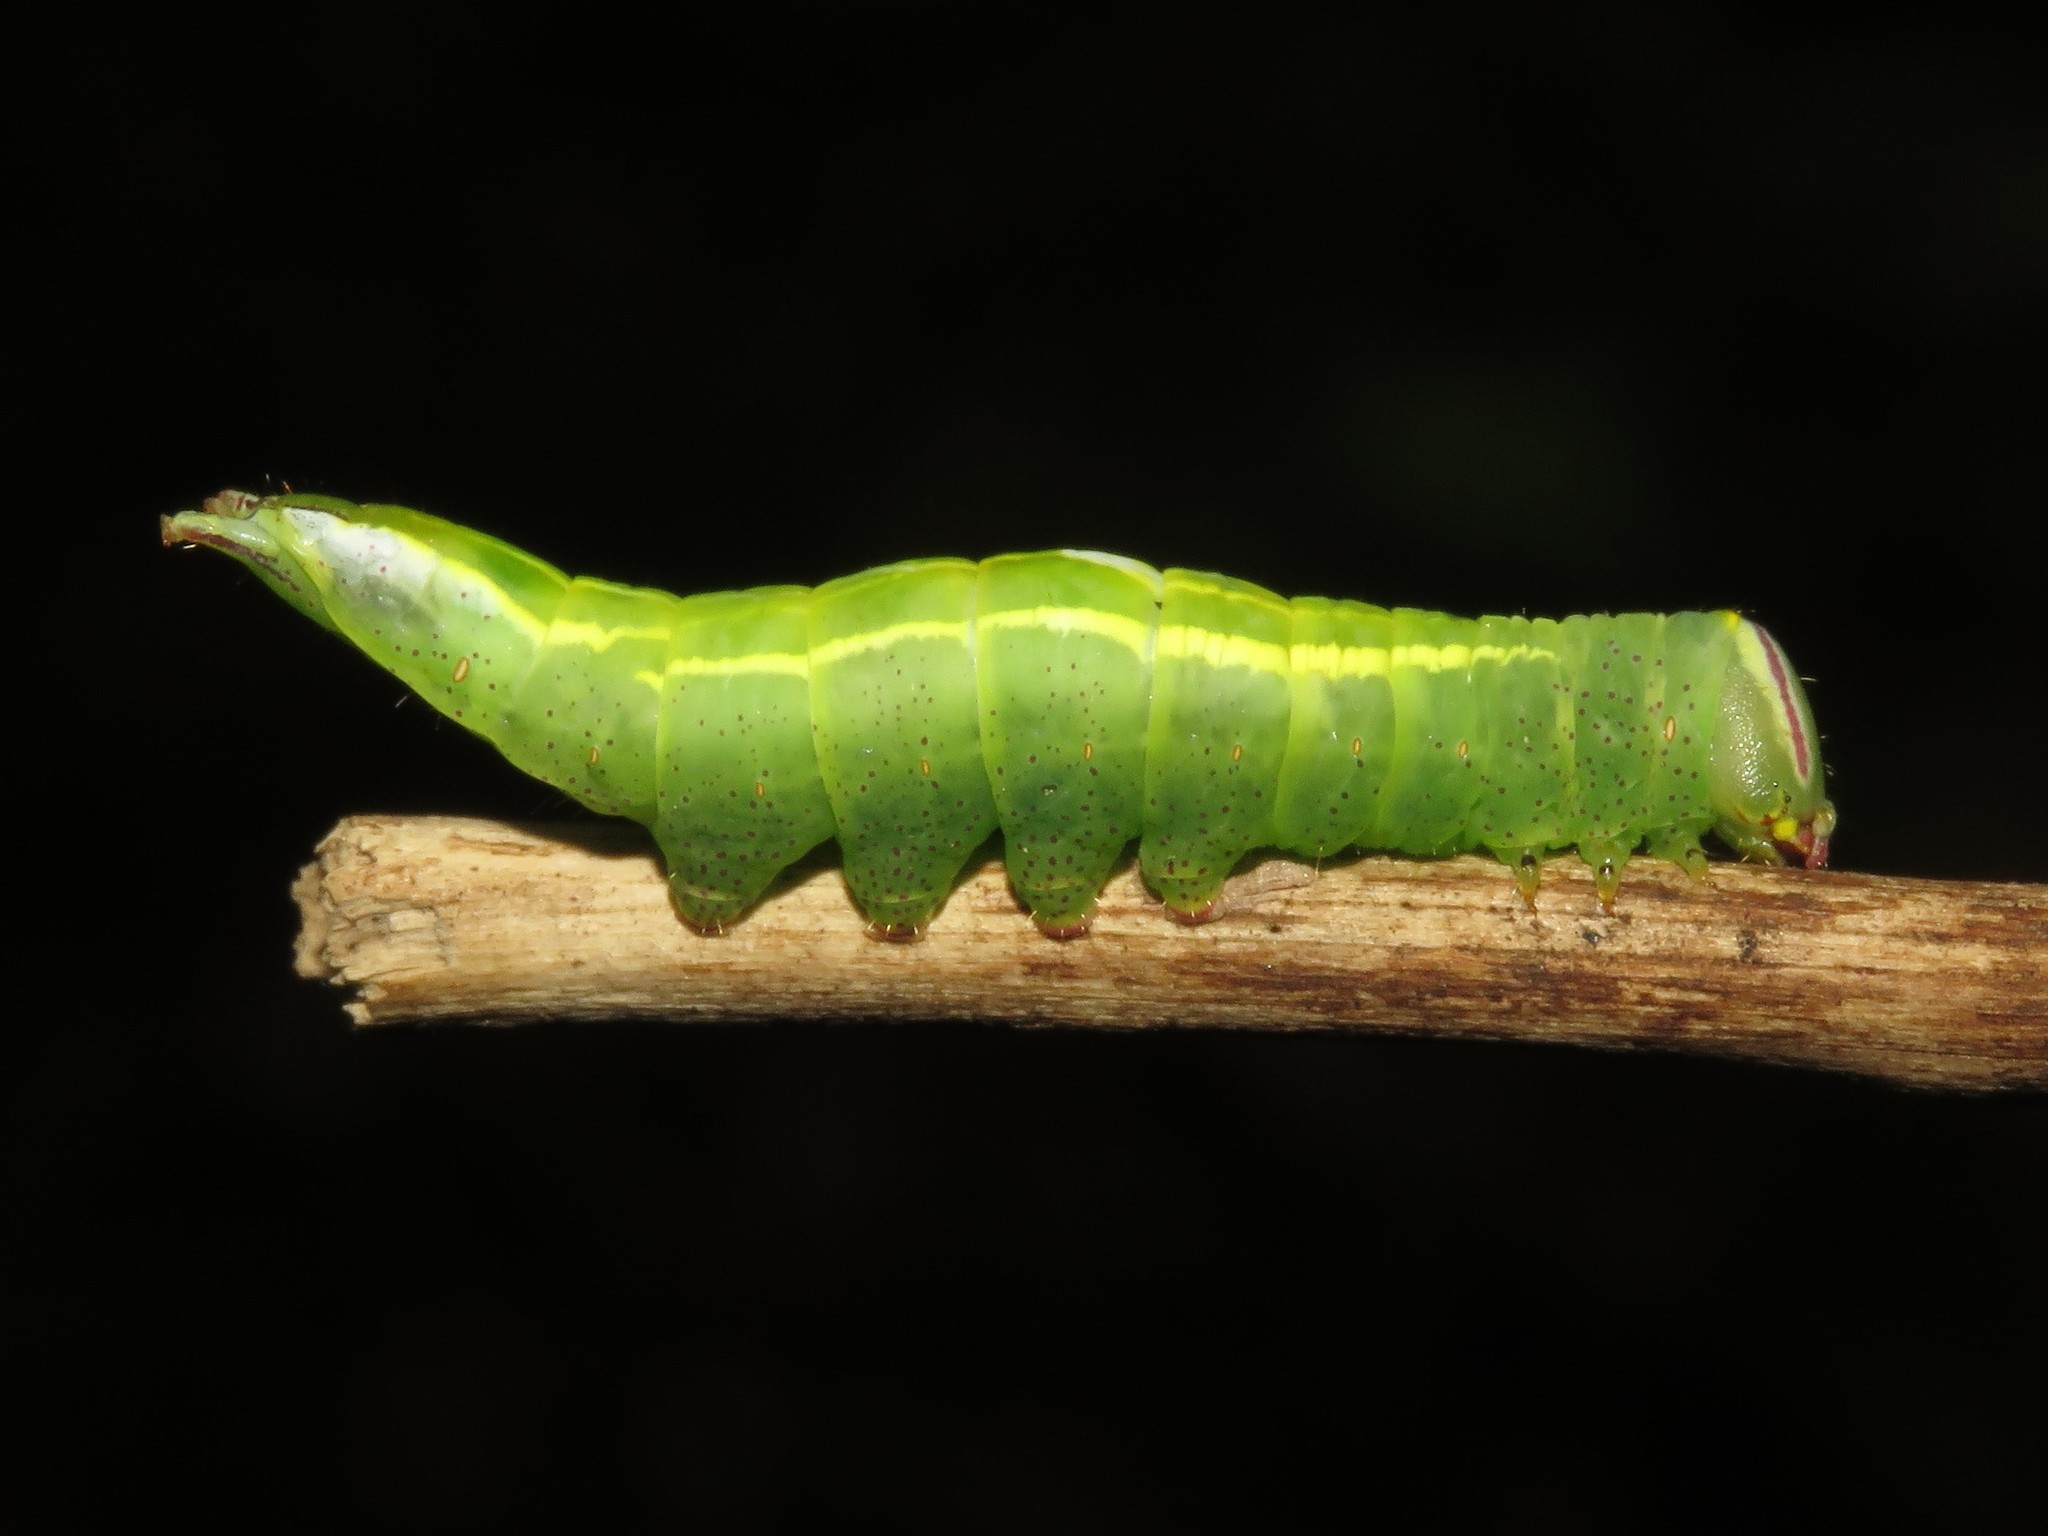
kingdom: Animalia
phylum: Arthropoda
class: Insecta
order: Lepidoptera
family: Notodontidae
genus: Disphragis
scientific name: Disphragis Cecrita guttivitta
